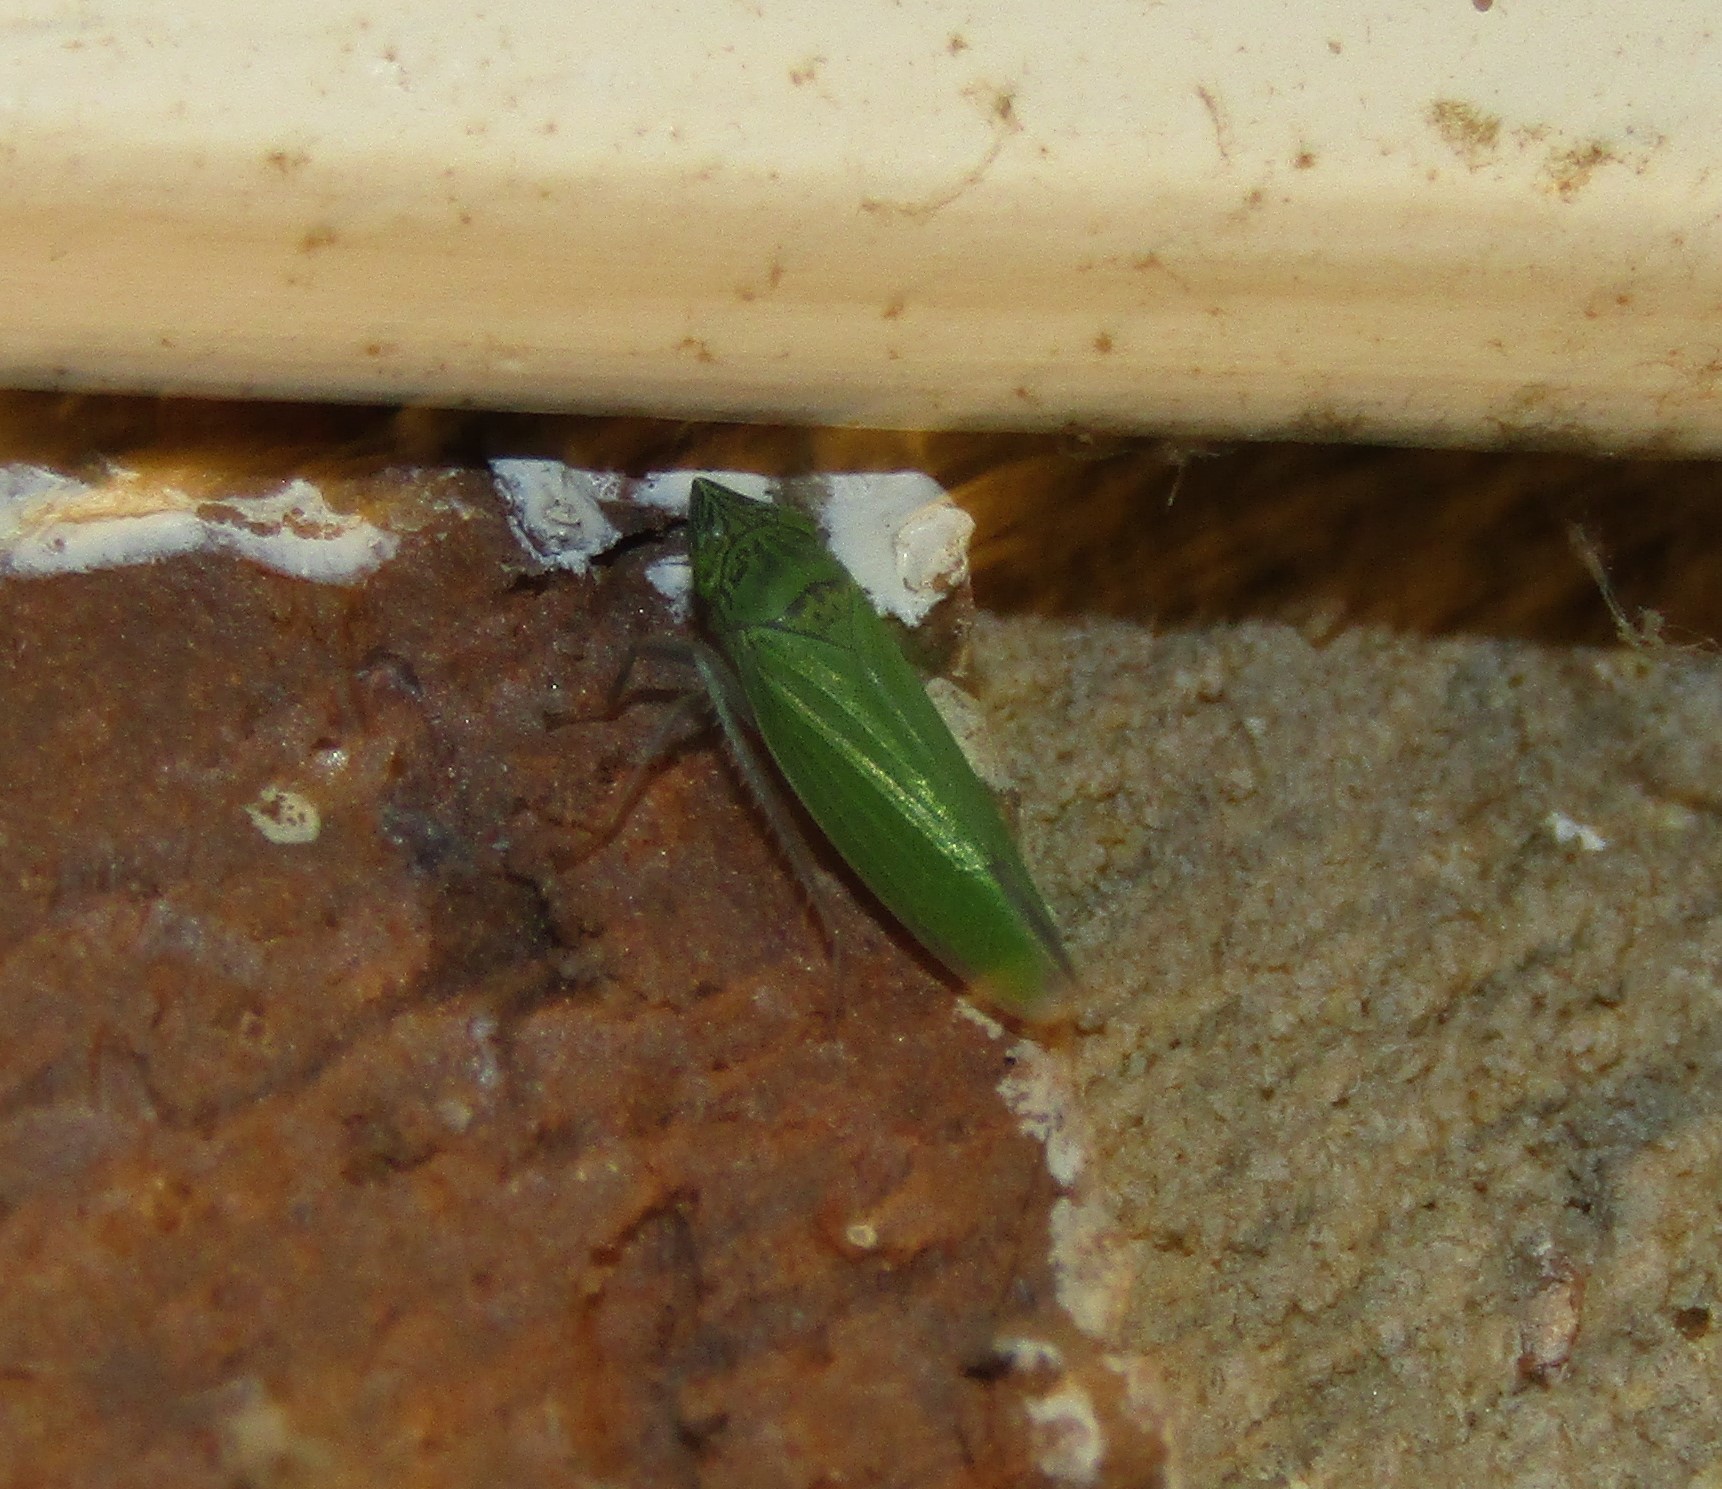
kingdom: Animalia
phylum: Arthropoda
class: Insecta
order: Hemiptera
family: Cicadellidae
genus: Draeculacephala
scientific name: Draeculacephala inscripta
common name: Leafhopper
